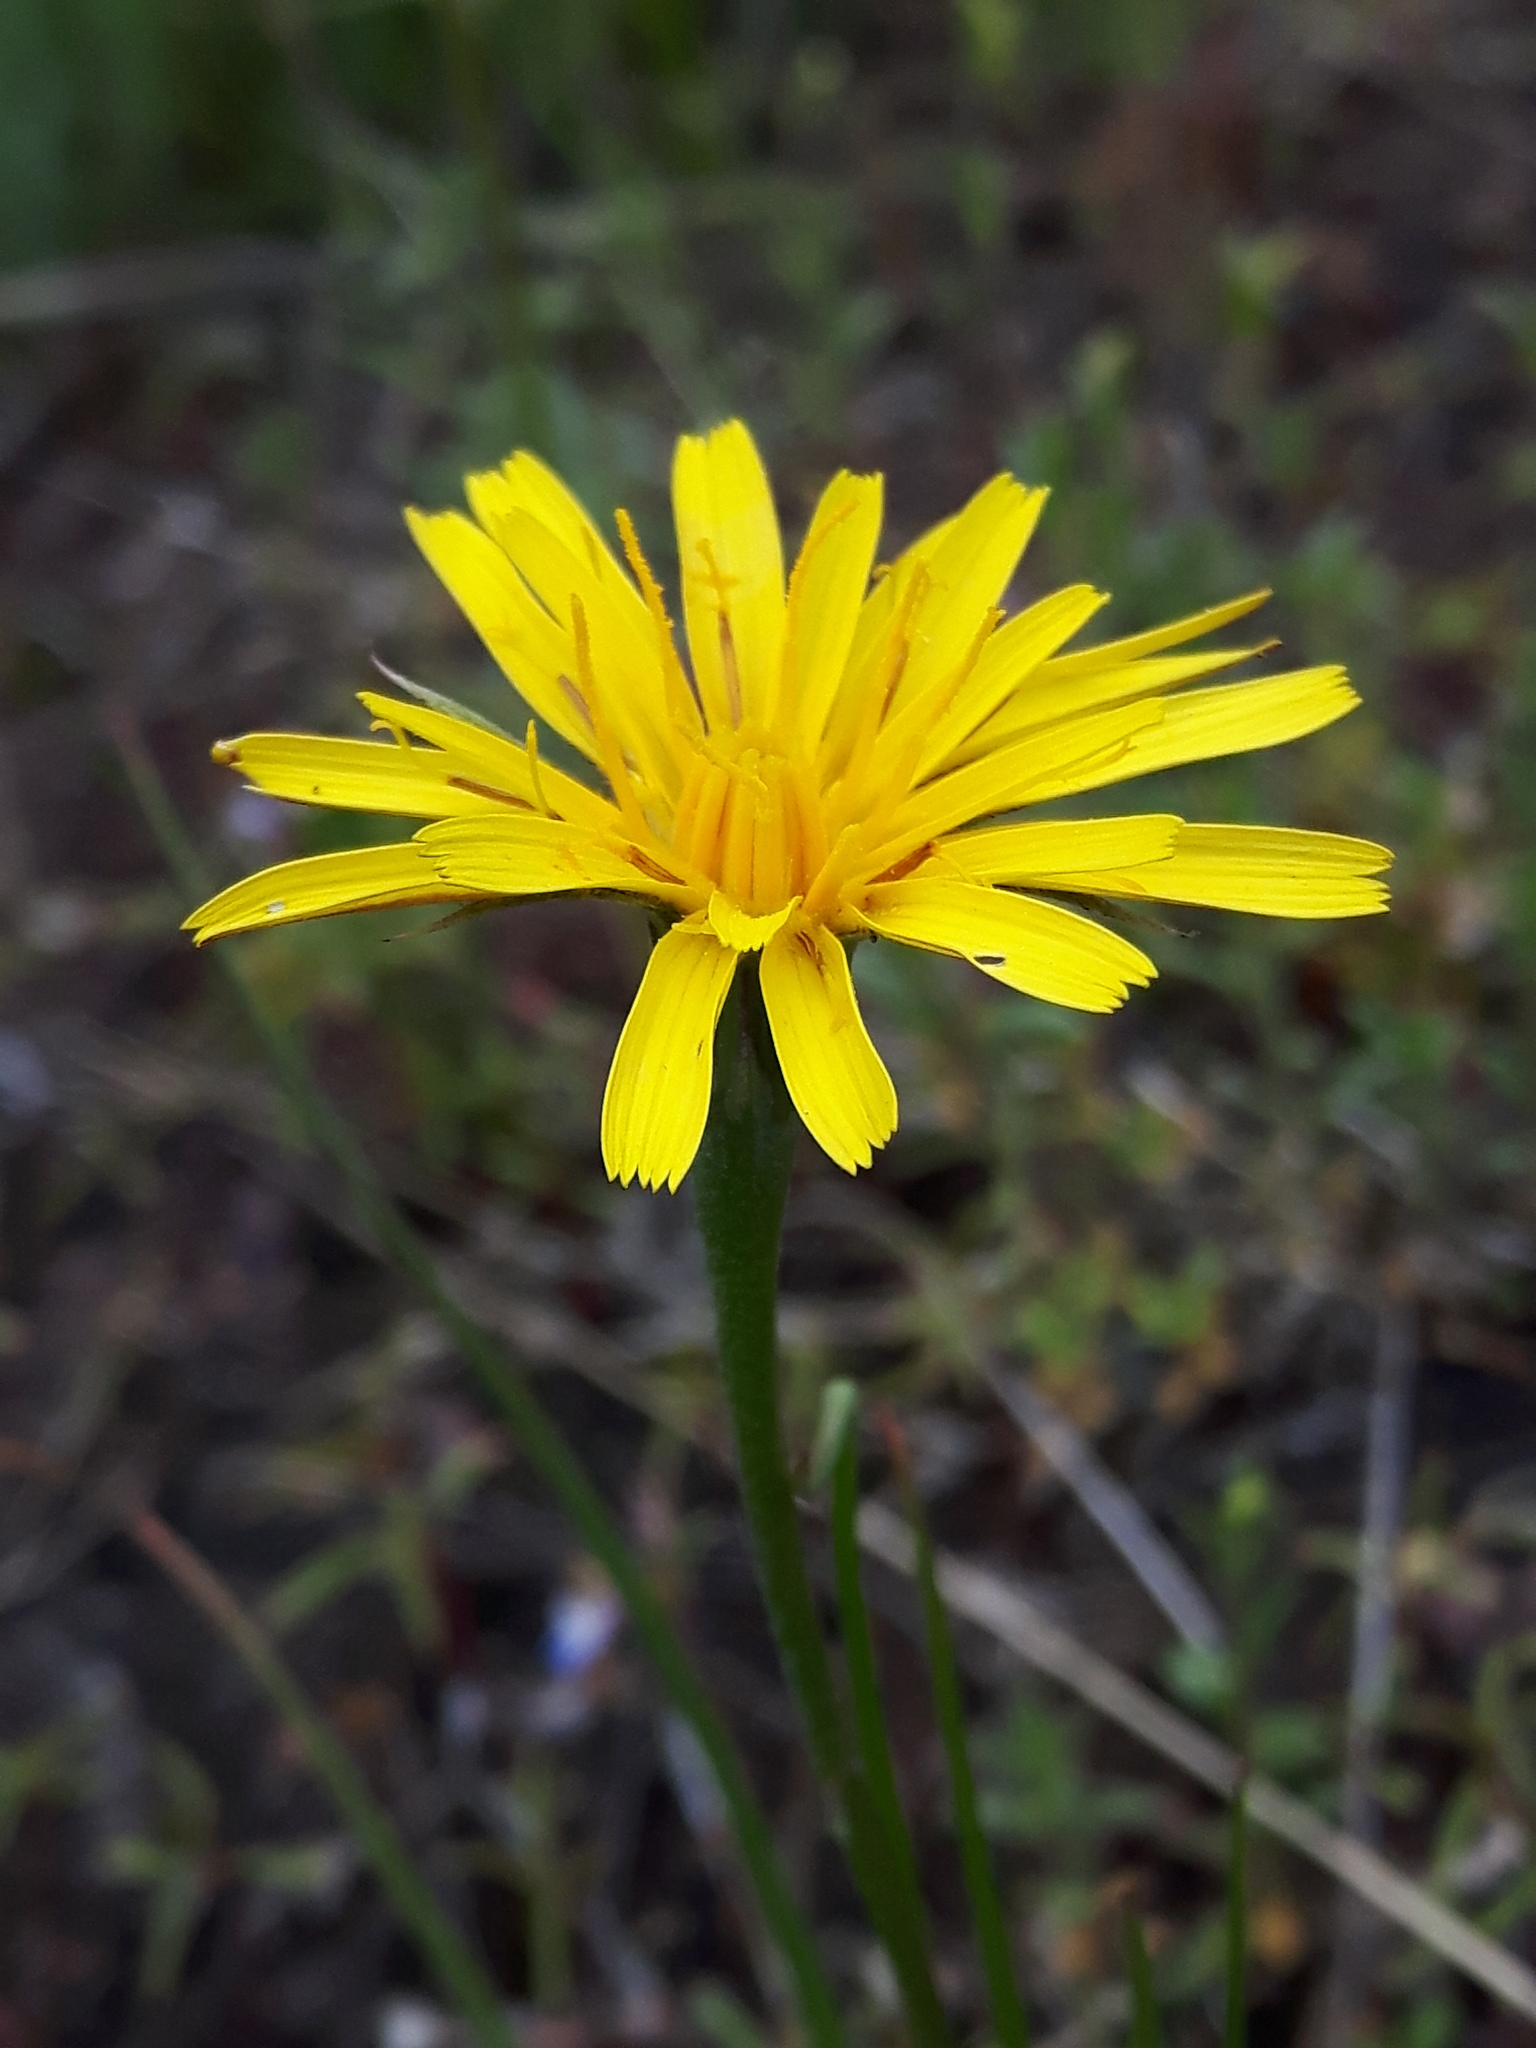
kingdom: Plantae
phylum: Tracheophyta
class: Magnoliopsida
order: Asterales
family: Asteraceae
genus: Microseris
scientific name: Microseris nutans
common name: Nodding microseris
